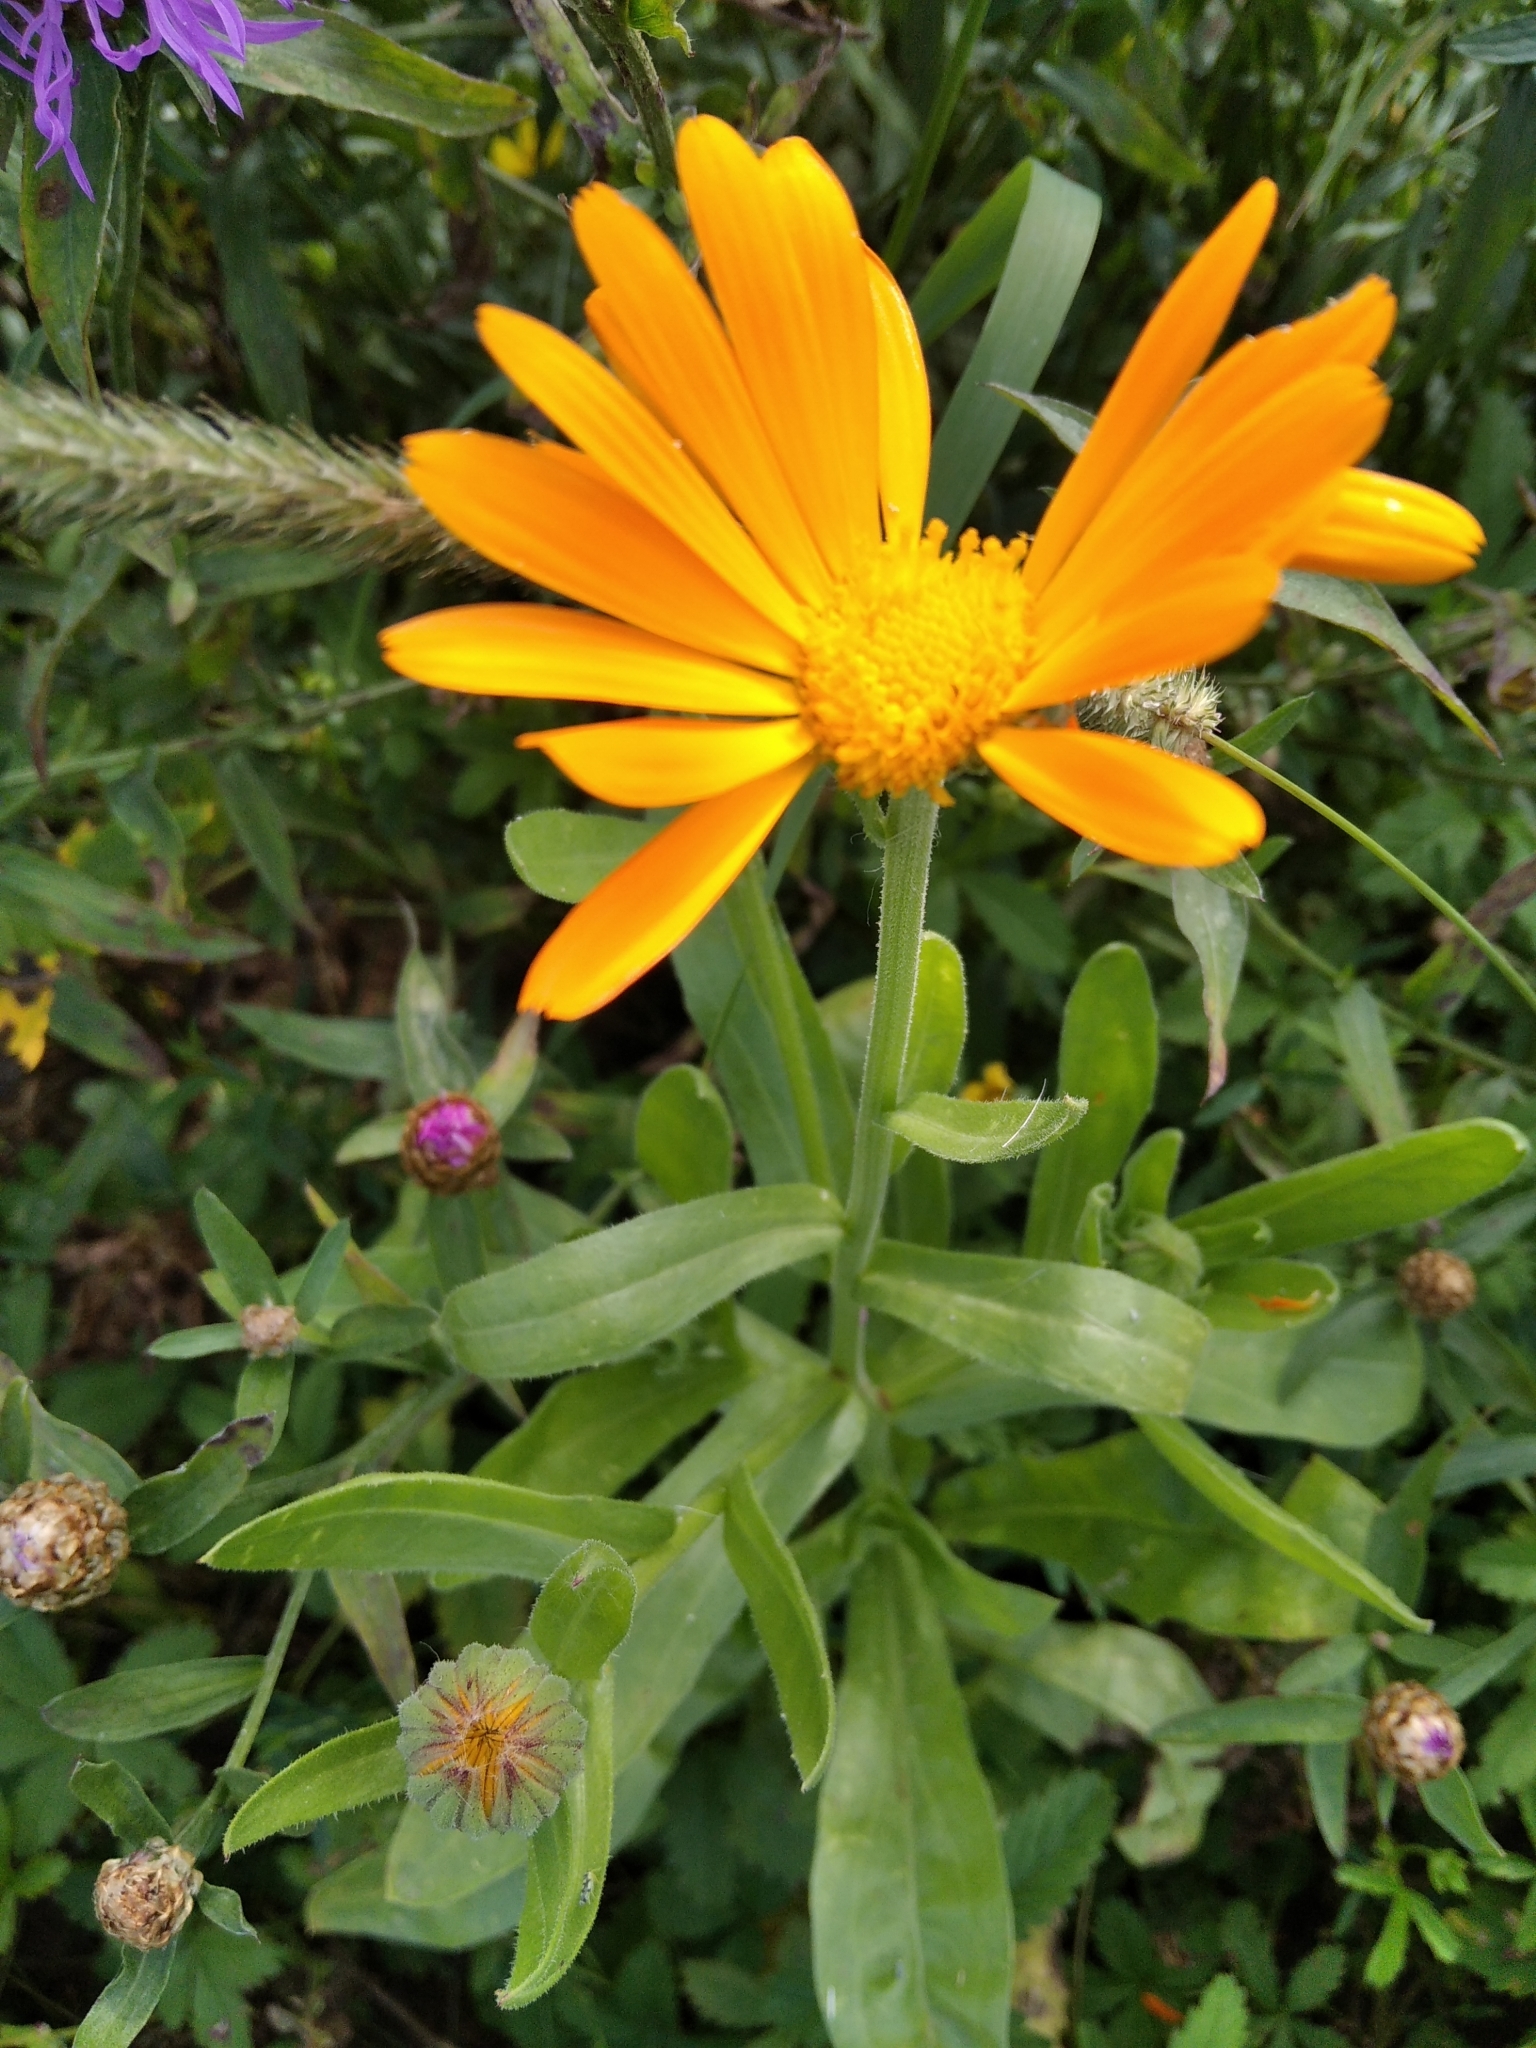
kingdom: Plantae
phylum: Tracheophyta
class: Magnoliopsida
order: Asterales
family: Asteraceae
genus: Calendula
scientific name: Calendula officinalis
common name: Pot marigold
